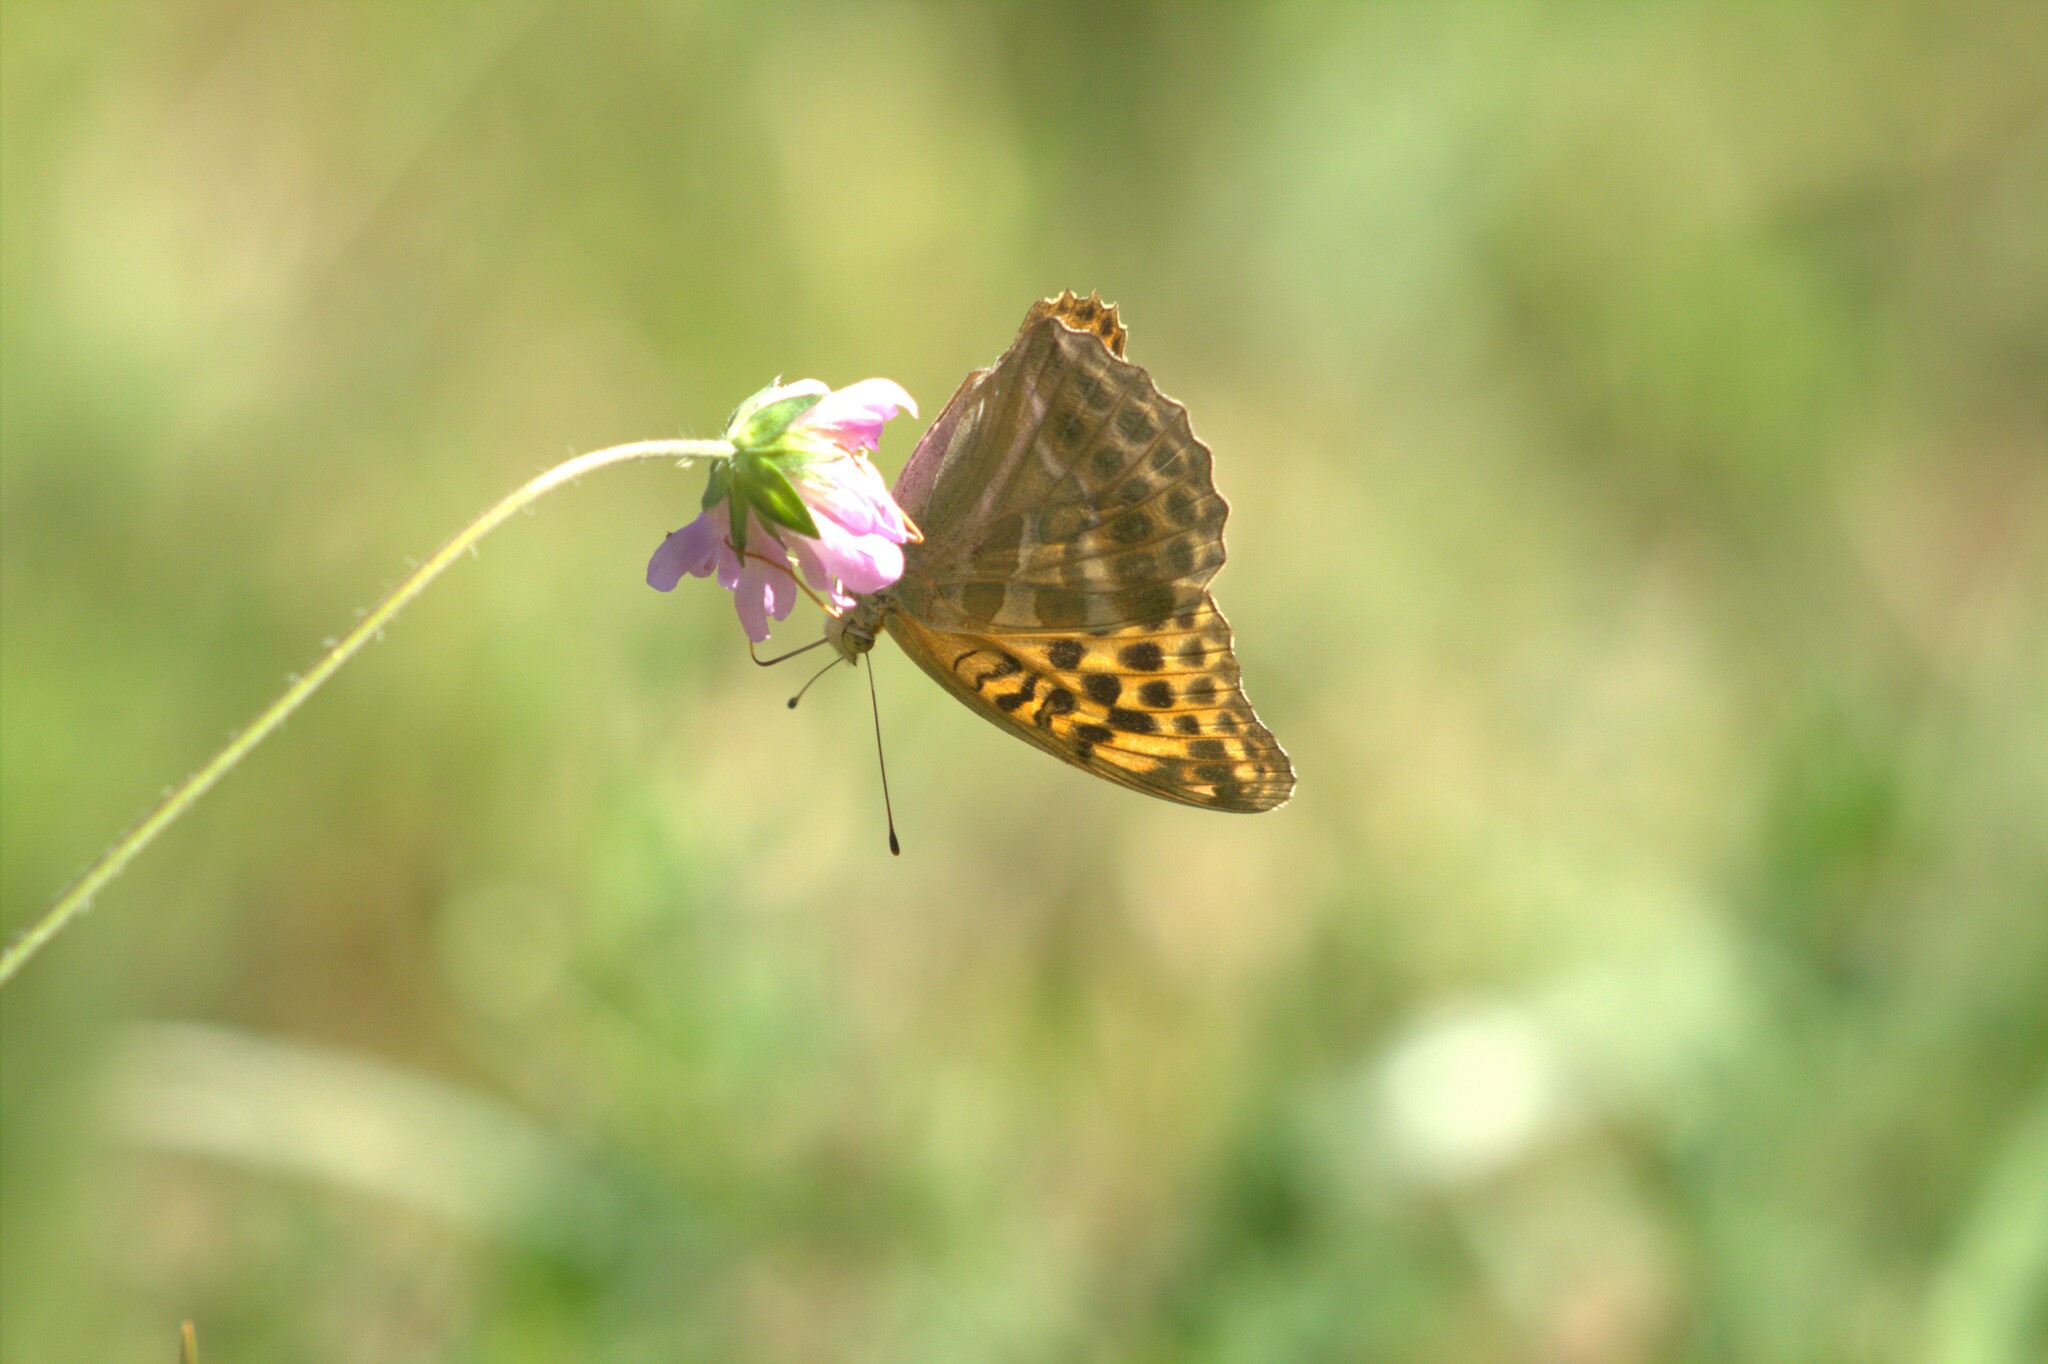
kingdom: Animalia
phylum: Arthropoda
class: Insecta
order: Lepidoptera
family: Nymphalidae
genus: Argynnis
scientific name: Argynnis paphia
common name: Silver-washed fritillary
